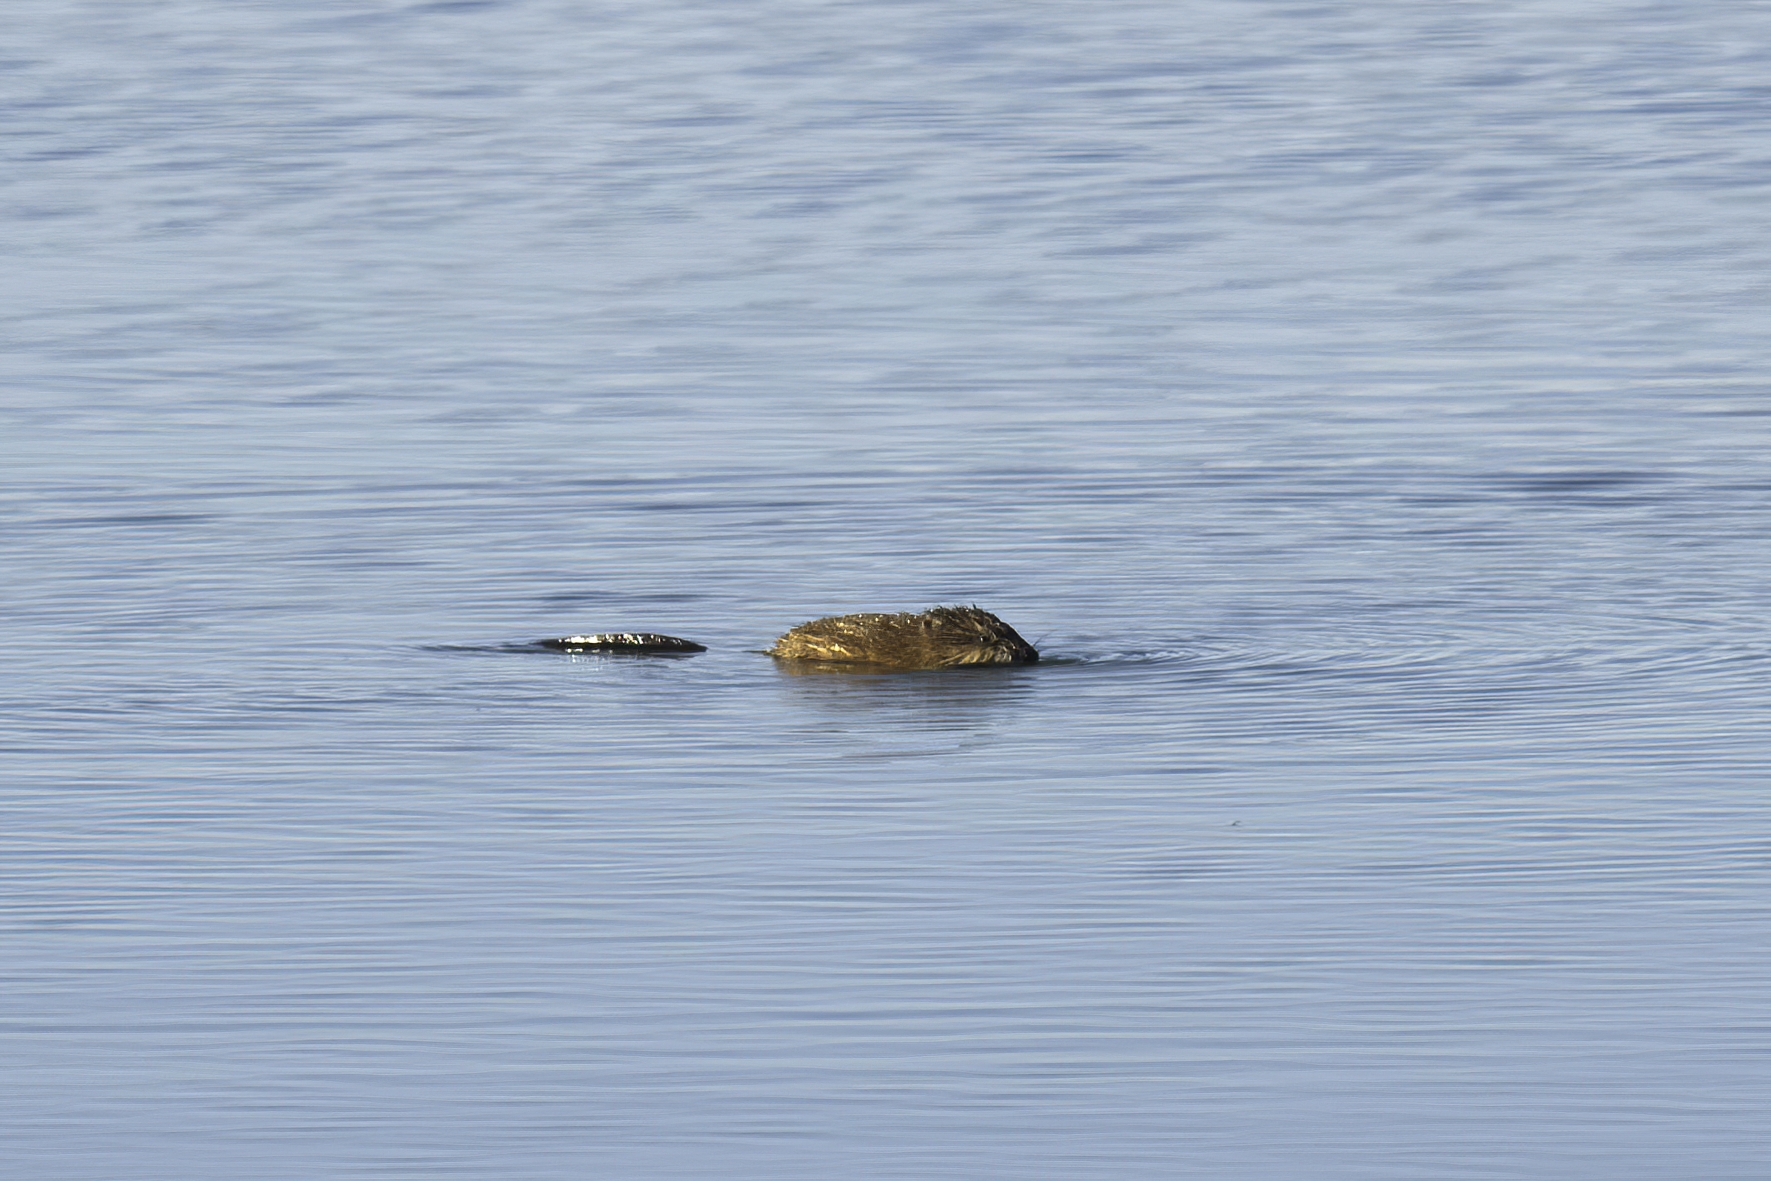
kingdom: Animalia
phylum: Chordata
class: Mammalia
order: Rodentia
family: Cricetidae
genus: Ondatra
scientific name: Ondatra zibethicus
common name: Muskrat
